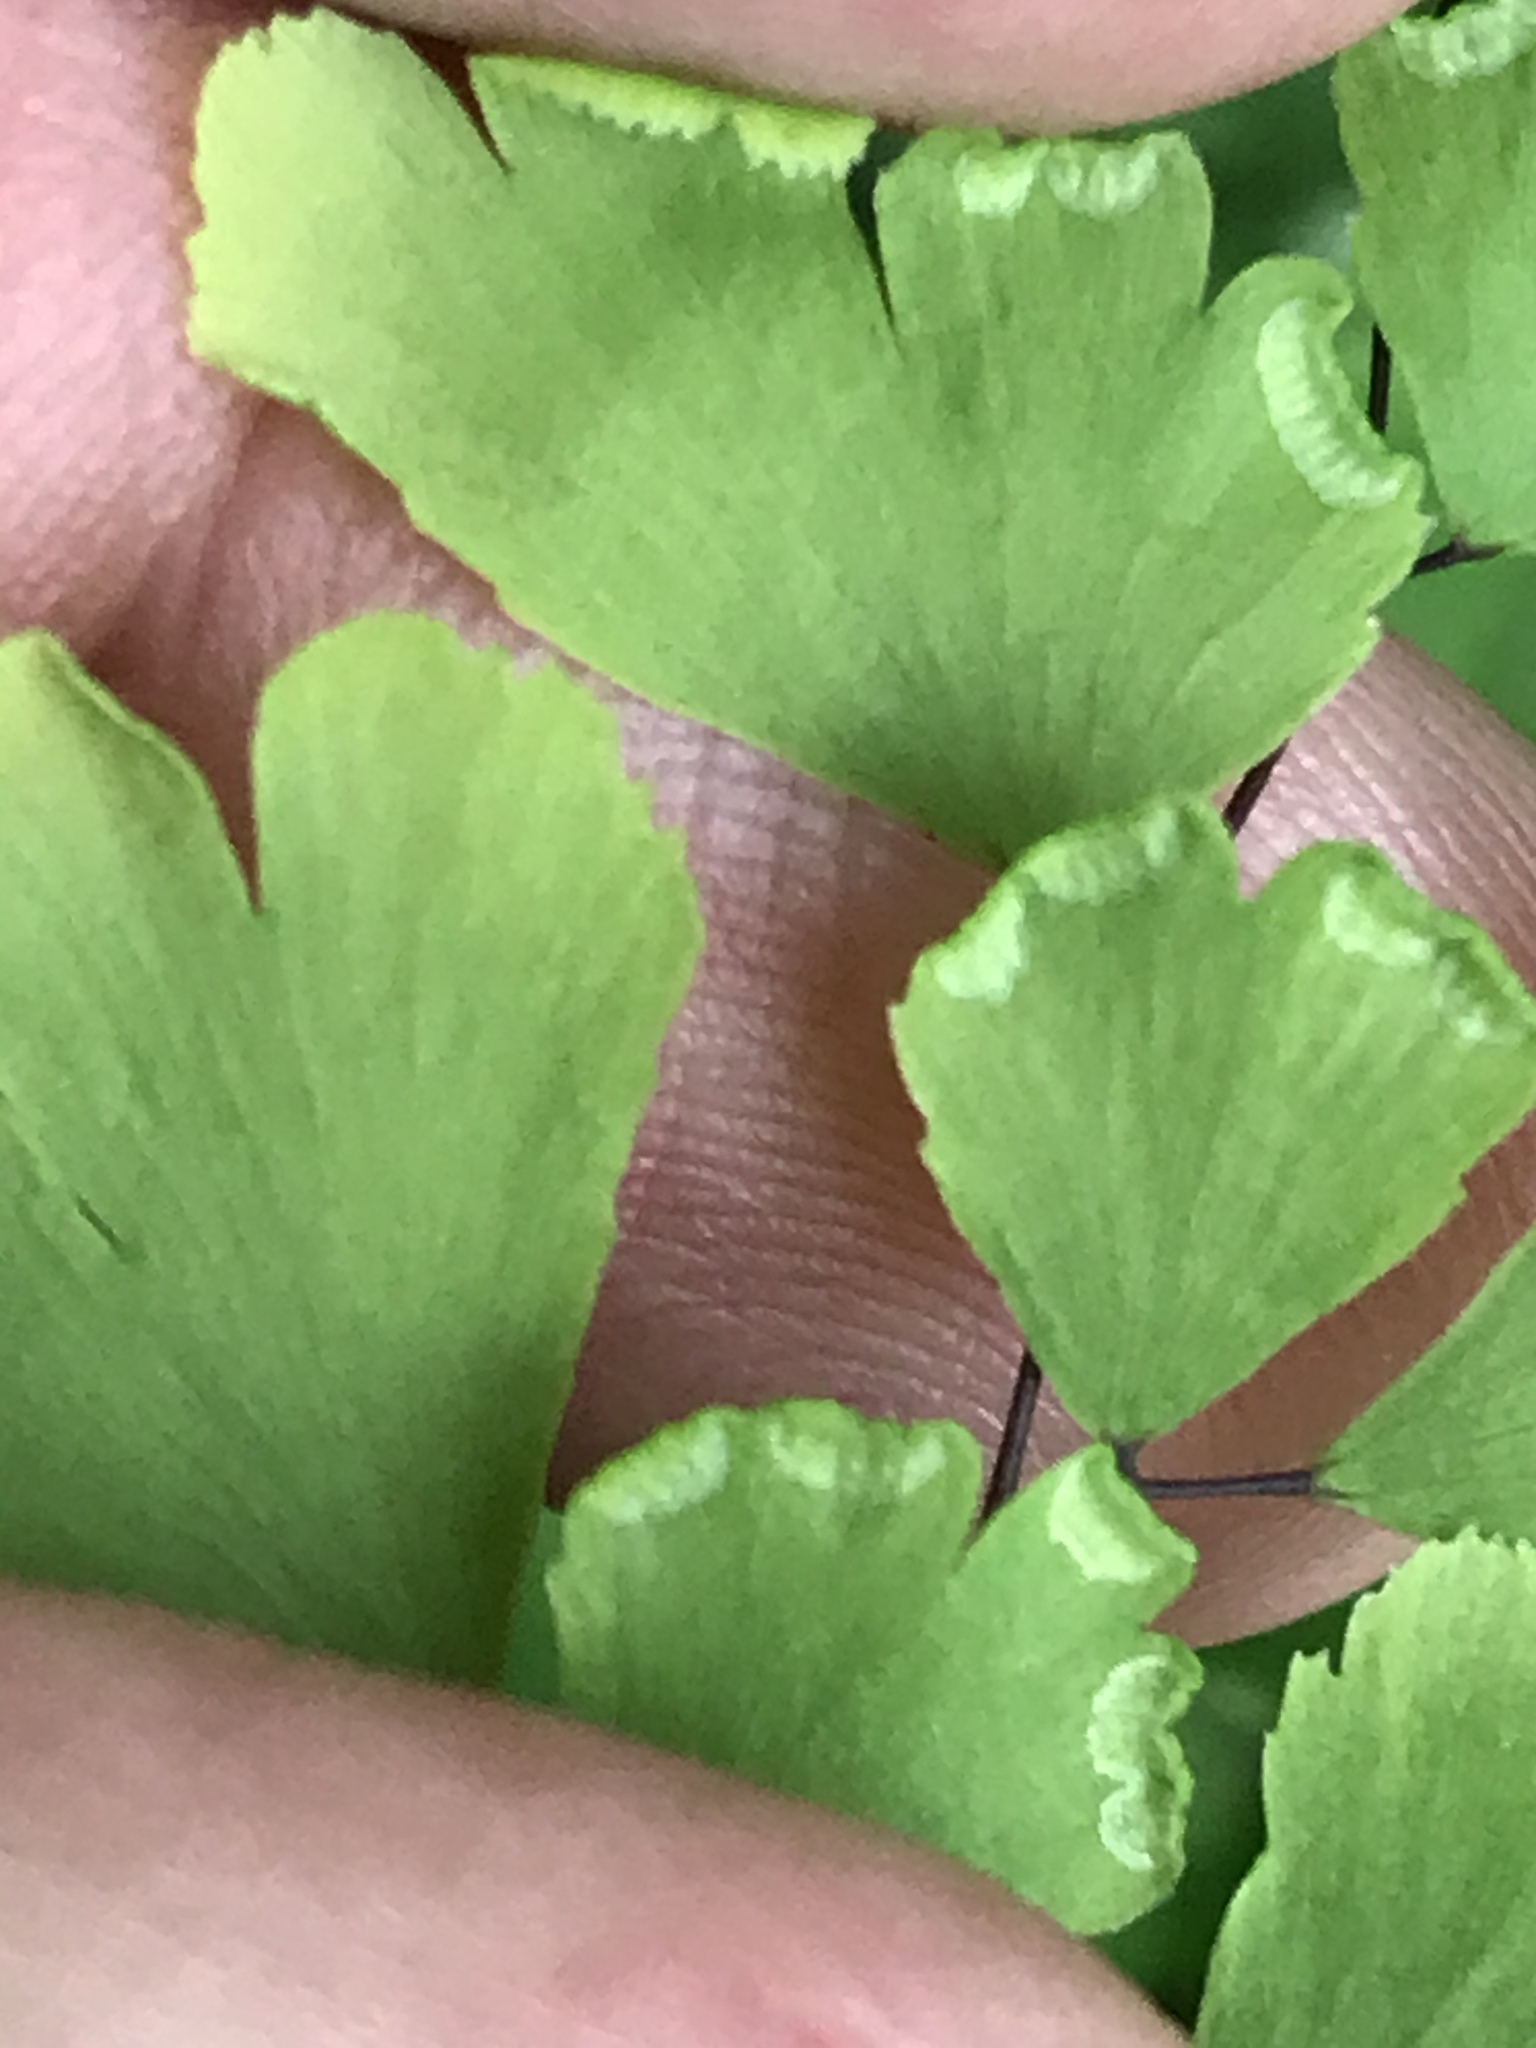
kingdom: Plantae
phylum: Tracheophyta
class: Polypodiopsida
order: Polypodiales
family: Pteridaceae
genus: Adiantum
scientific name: Adiantum capillus-veneris
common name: Maidenhair fern
